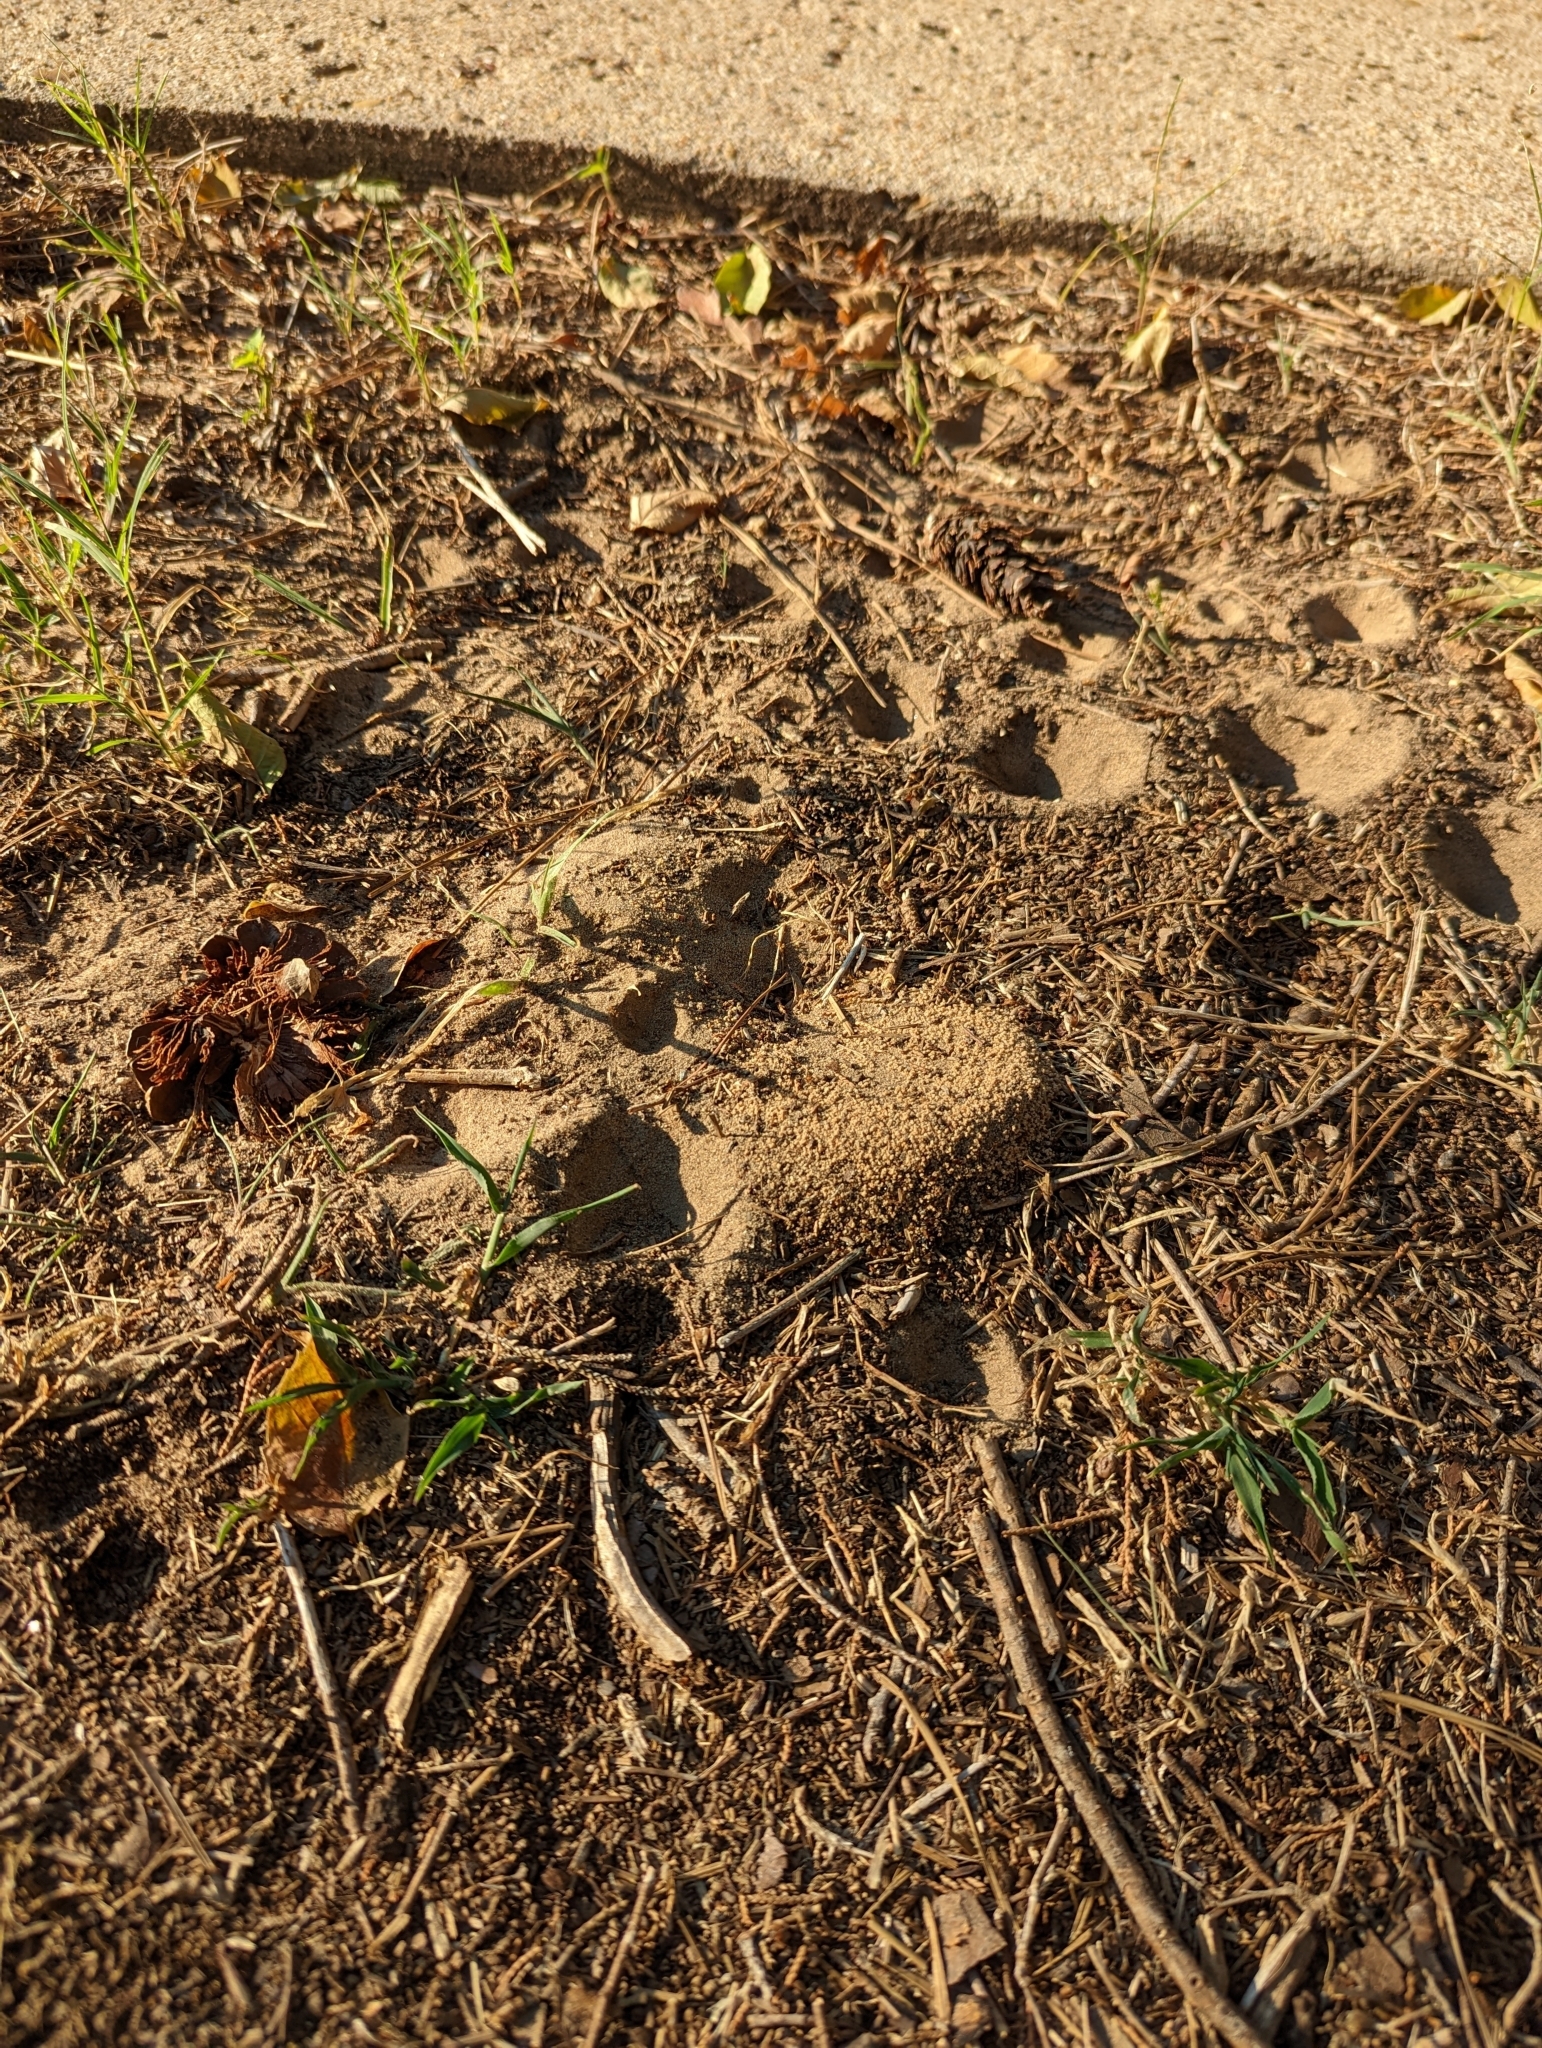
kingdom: Animalia
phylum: Arthropoda
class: Insecta
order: Hymenoptera
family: Formicidae
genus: Dorymyrmex
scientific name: Dorymyrmex flavus
